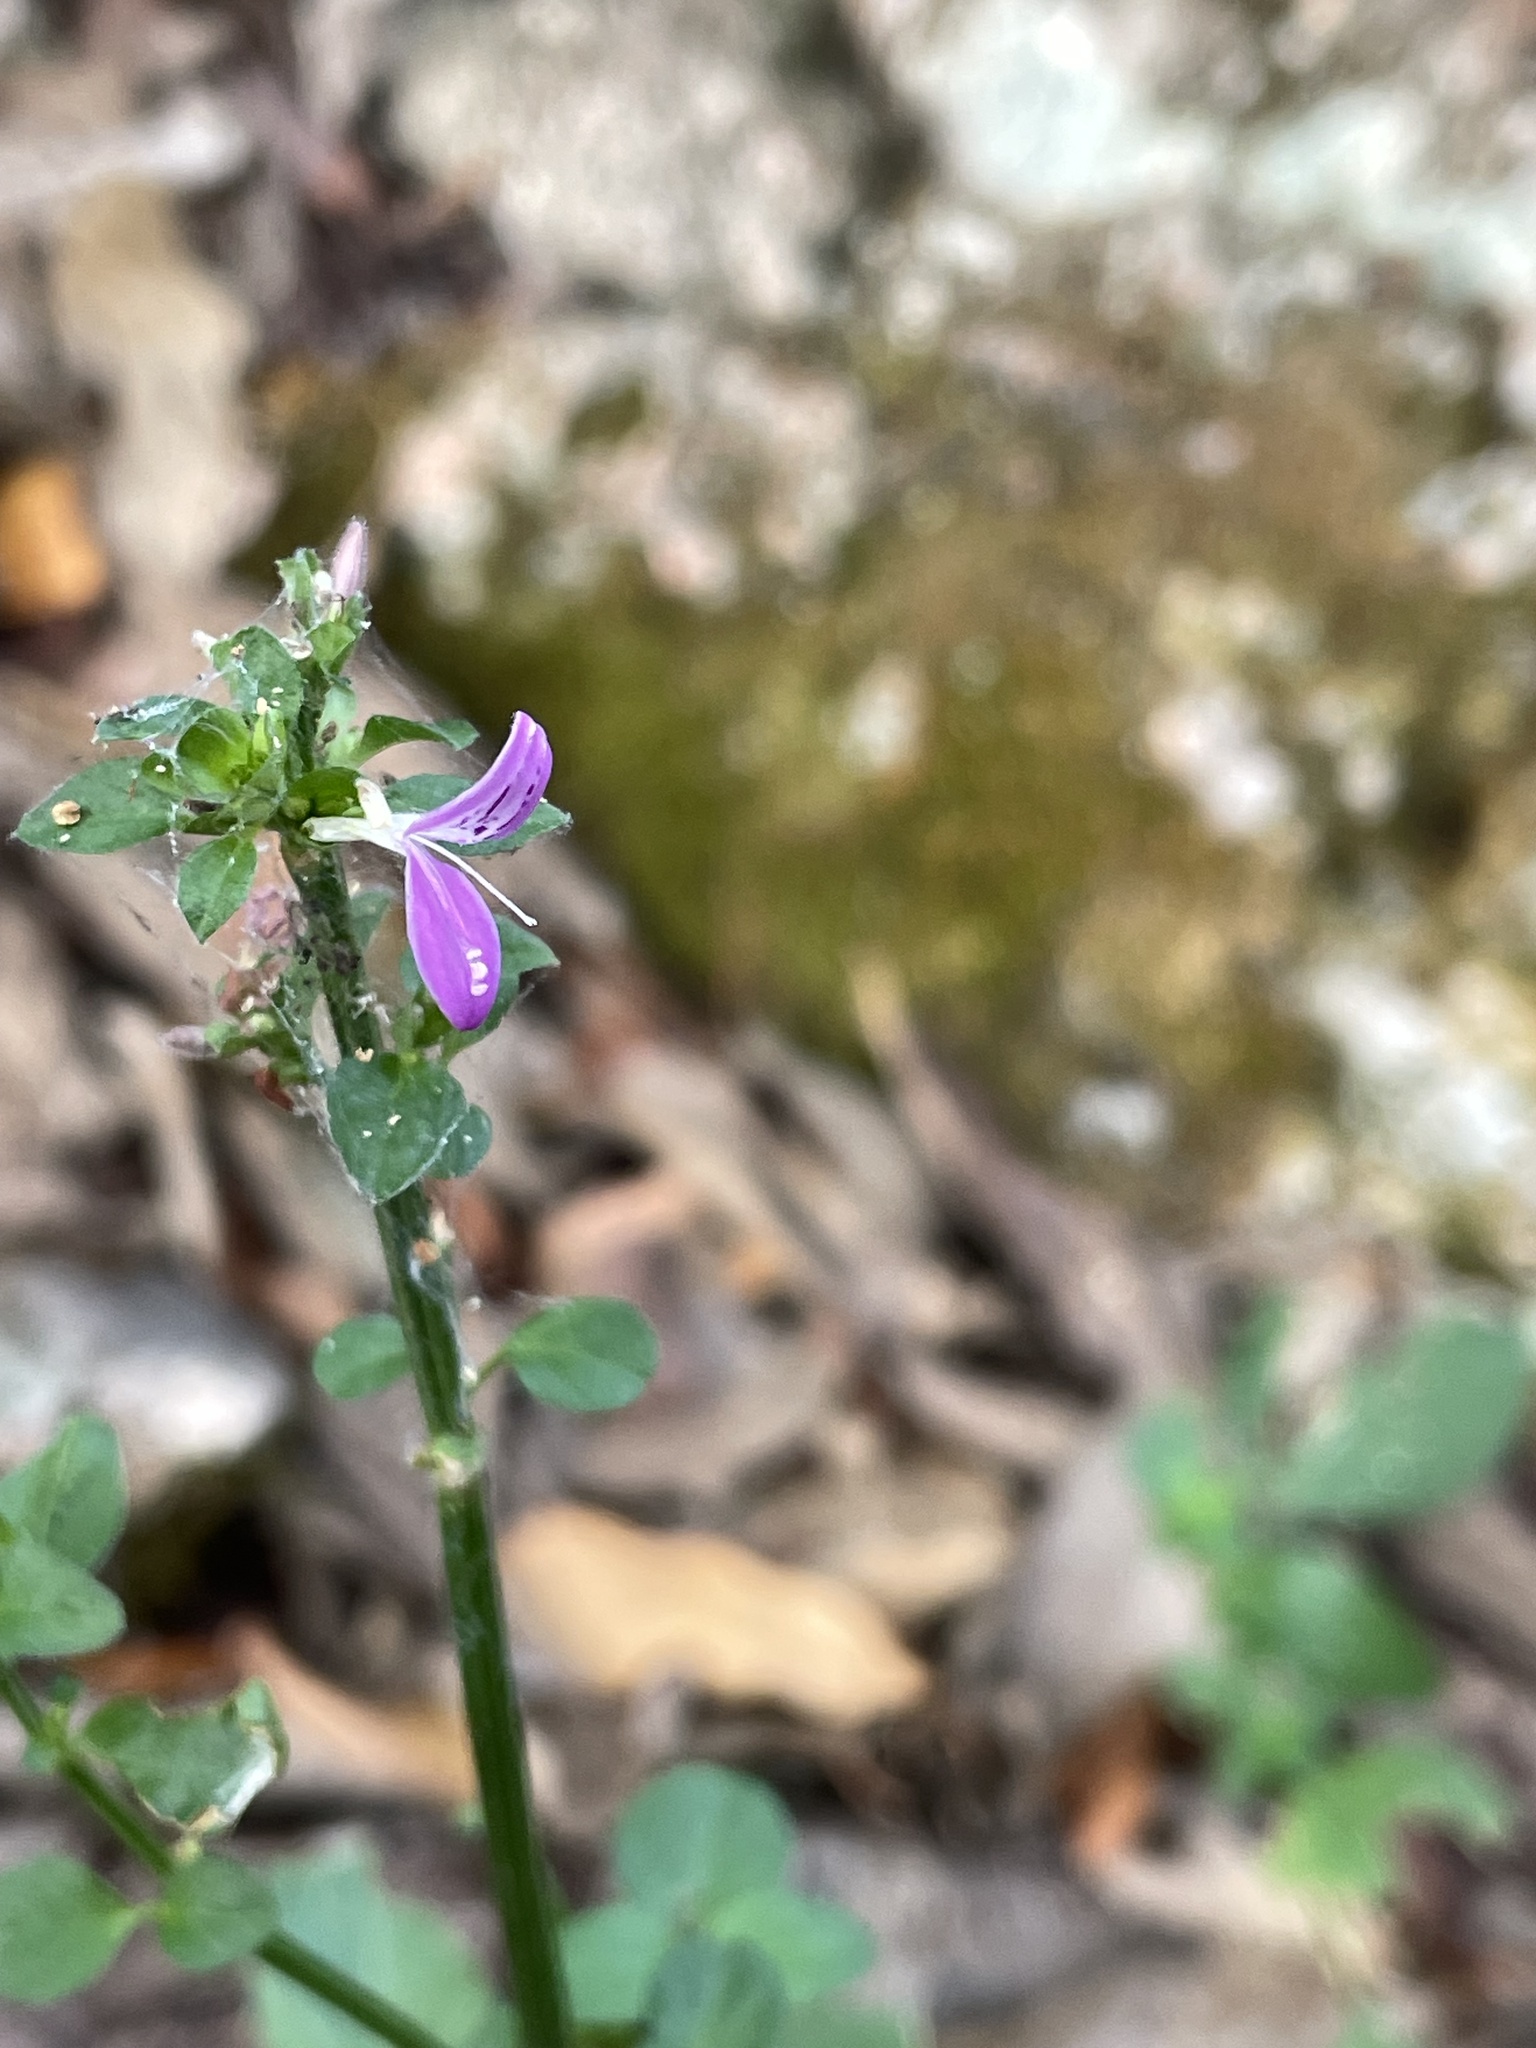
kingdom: Plantae
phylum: Tracheophyta
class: Magnoliopsida
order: Lamiales
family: Acanthaceae
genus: Dicliptera
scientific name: Dicliptera brachiata
